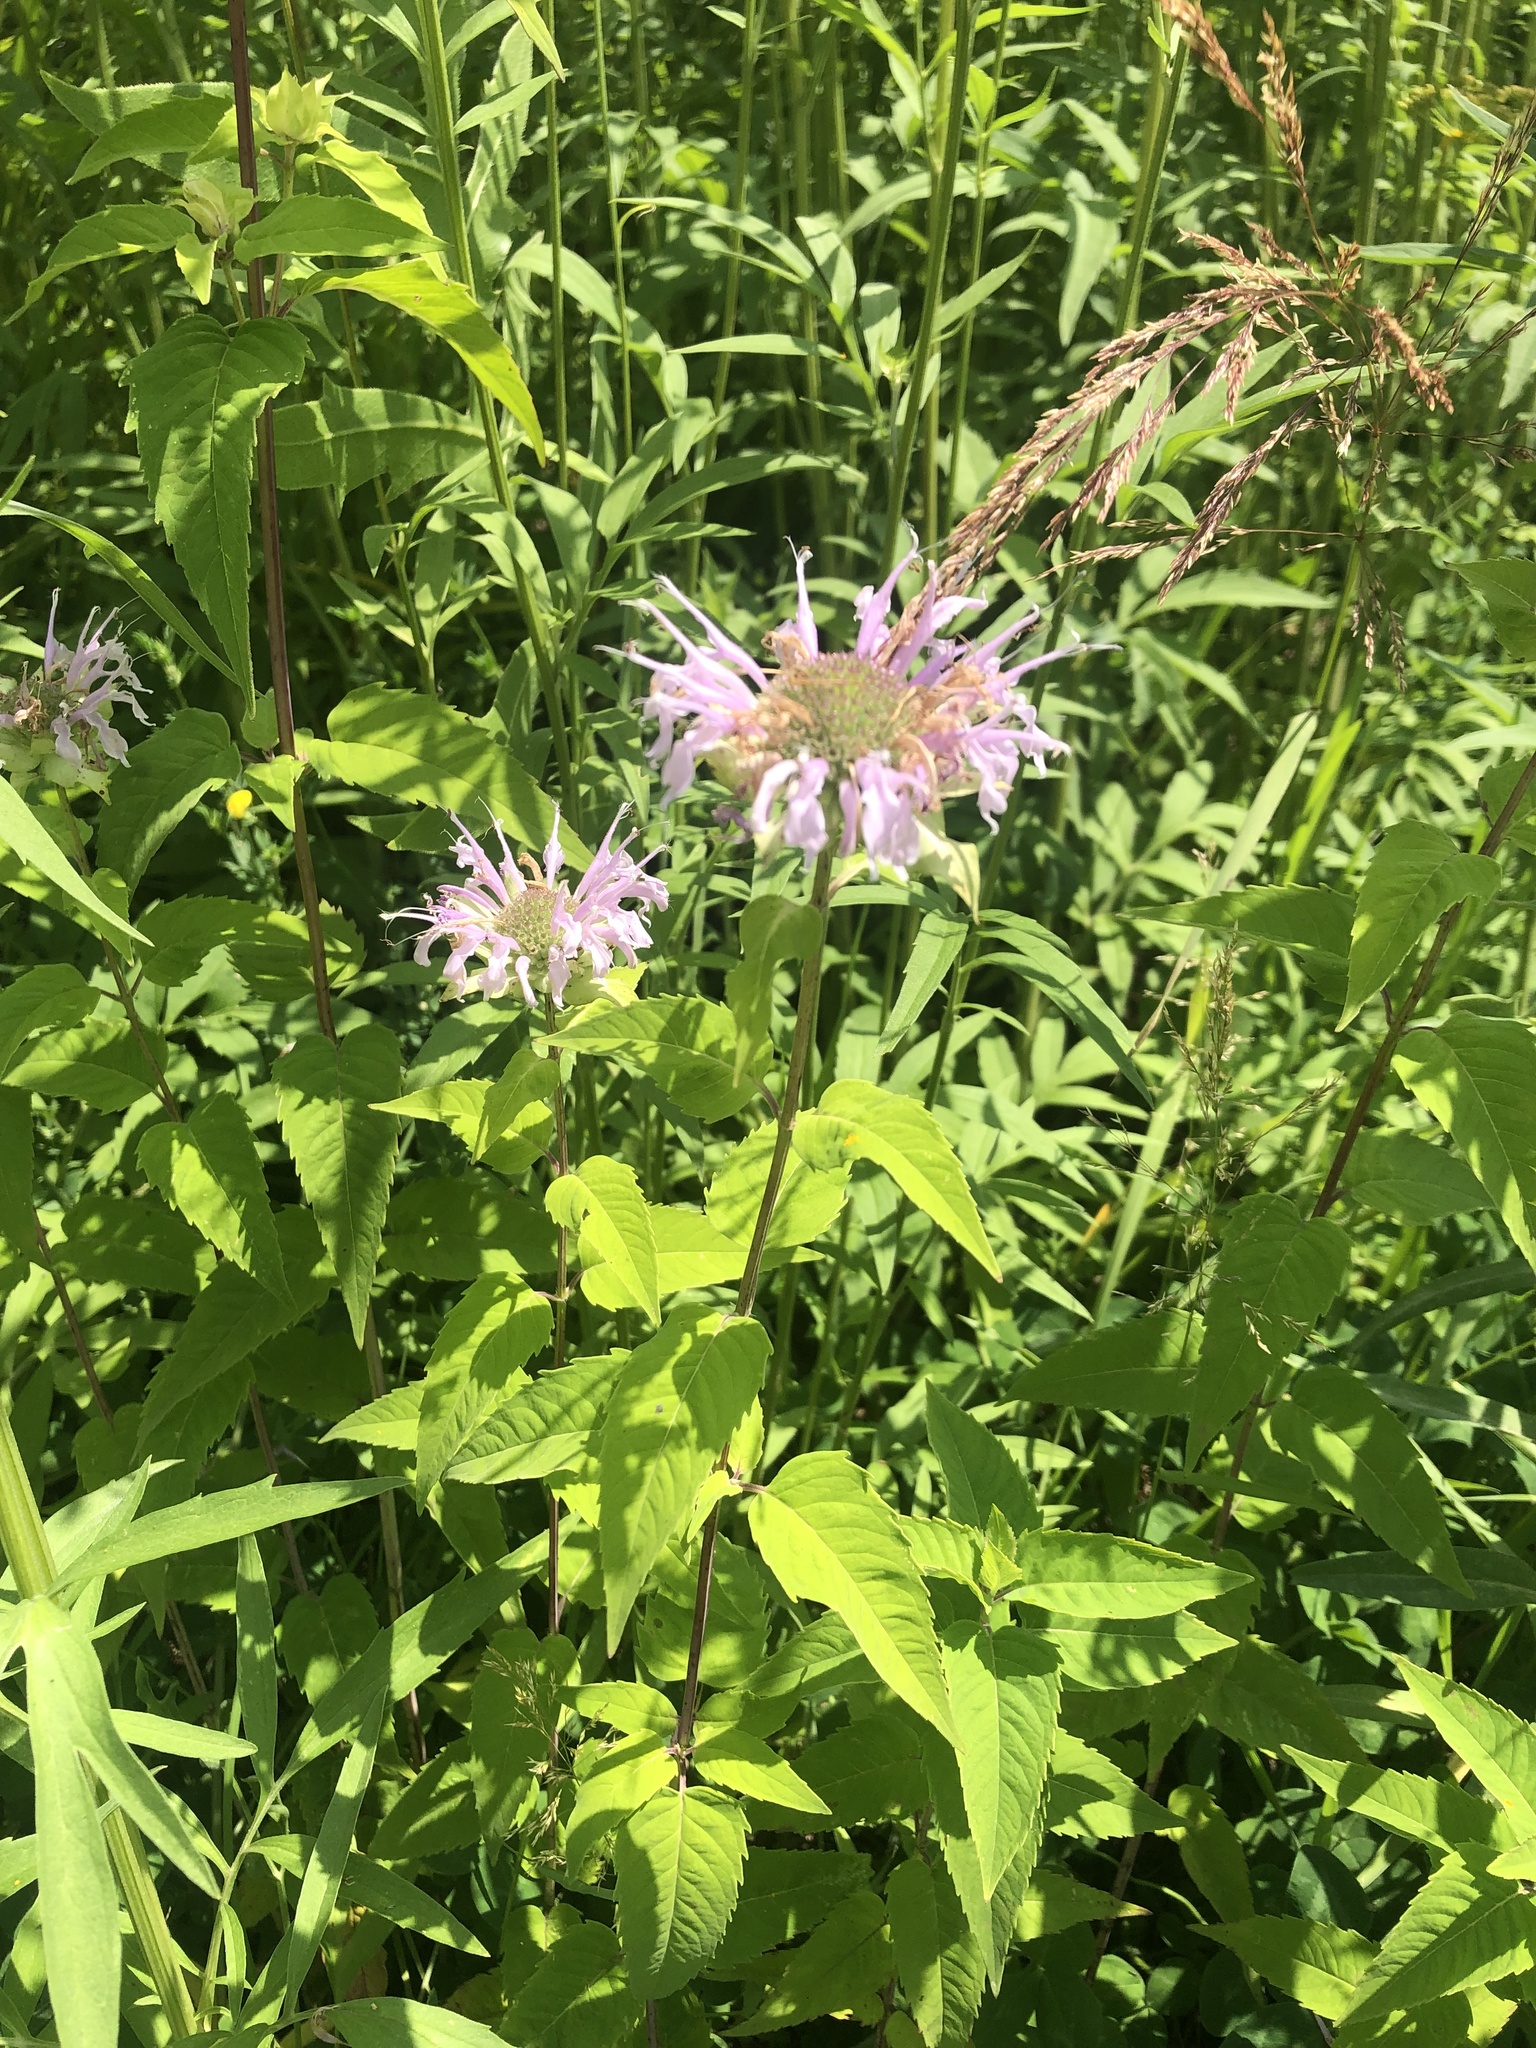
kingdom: Plantae
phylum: Tracheophyta
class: Magnoliopsida
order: Lamiales
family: Lamiaceae
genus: Monarda
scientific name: Monarda fistulosa
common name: Purple beebalm
